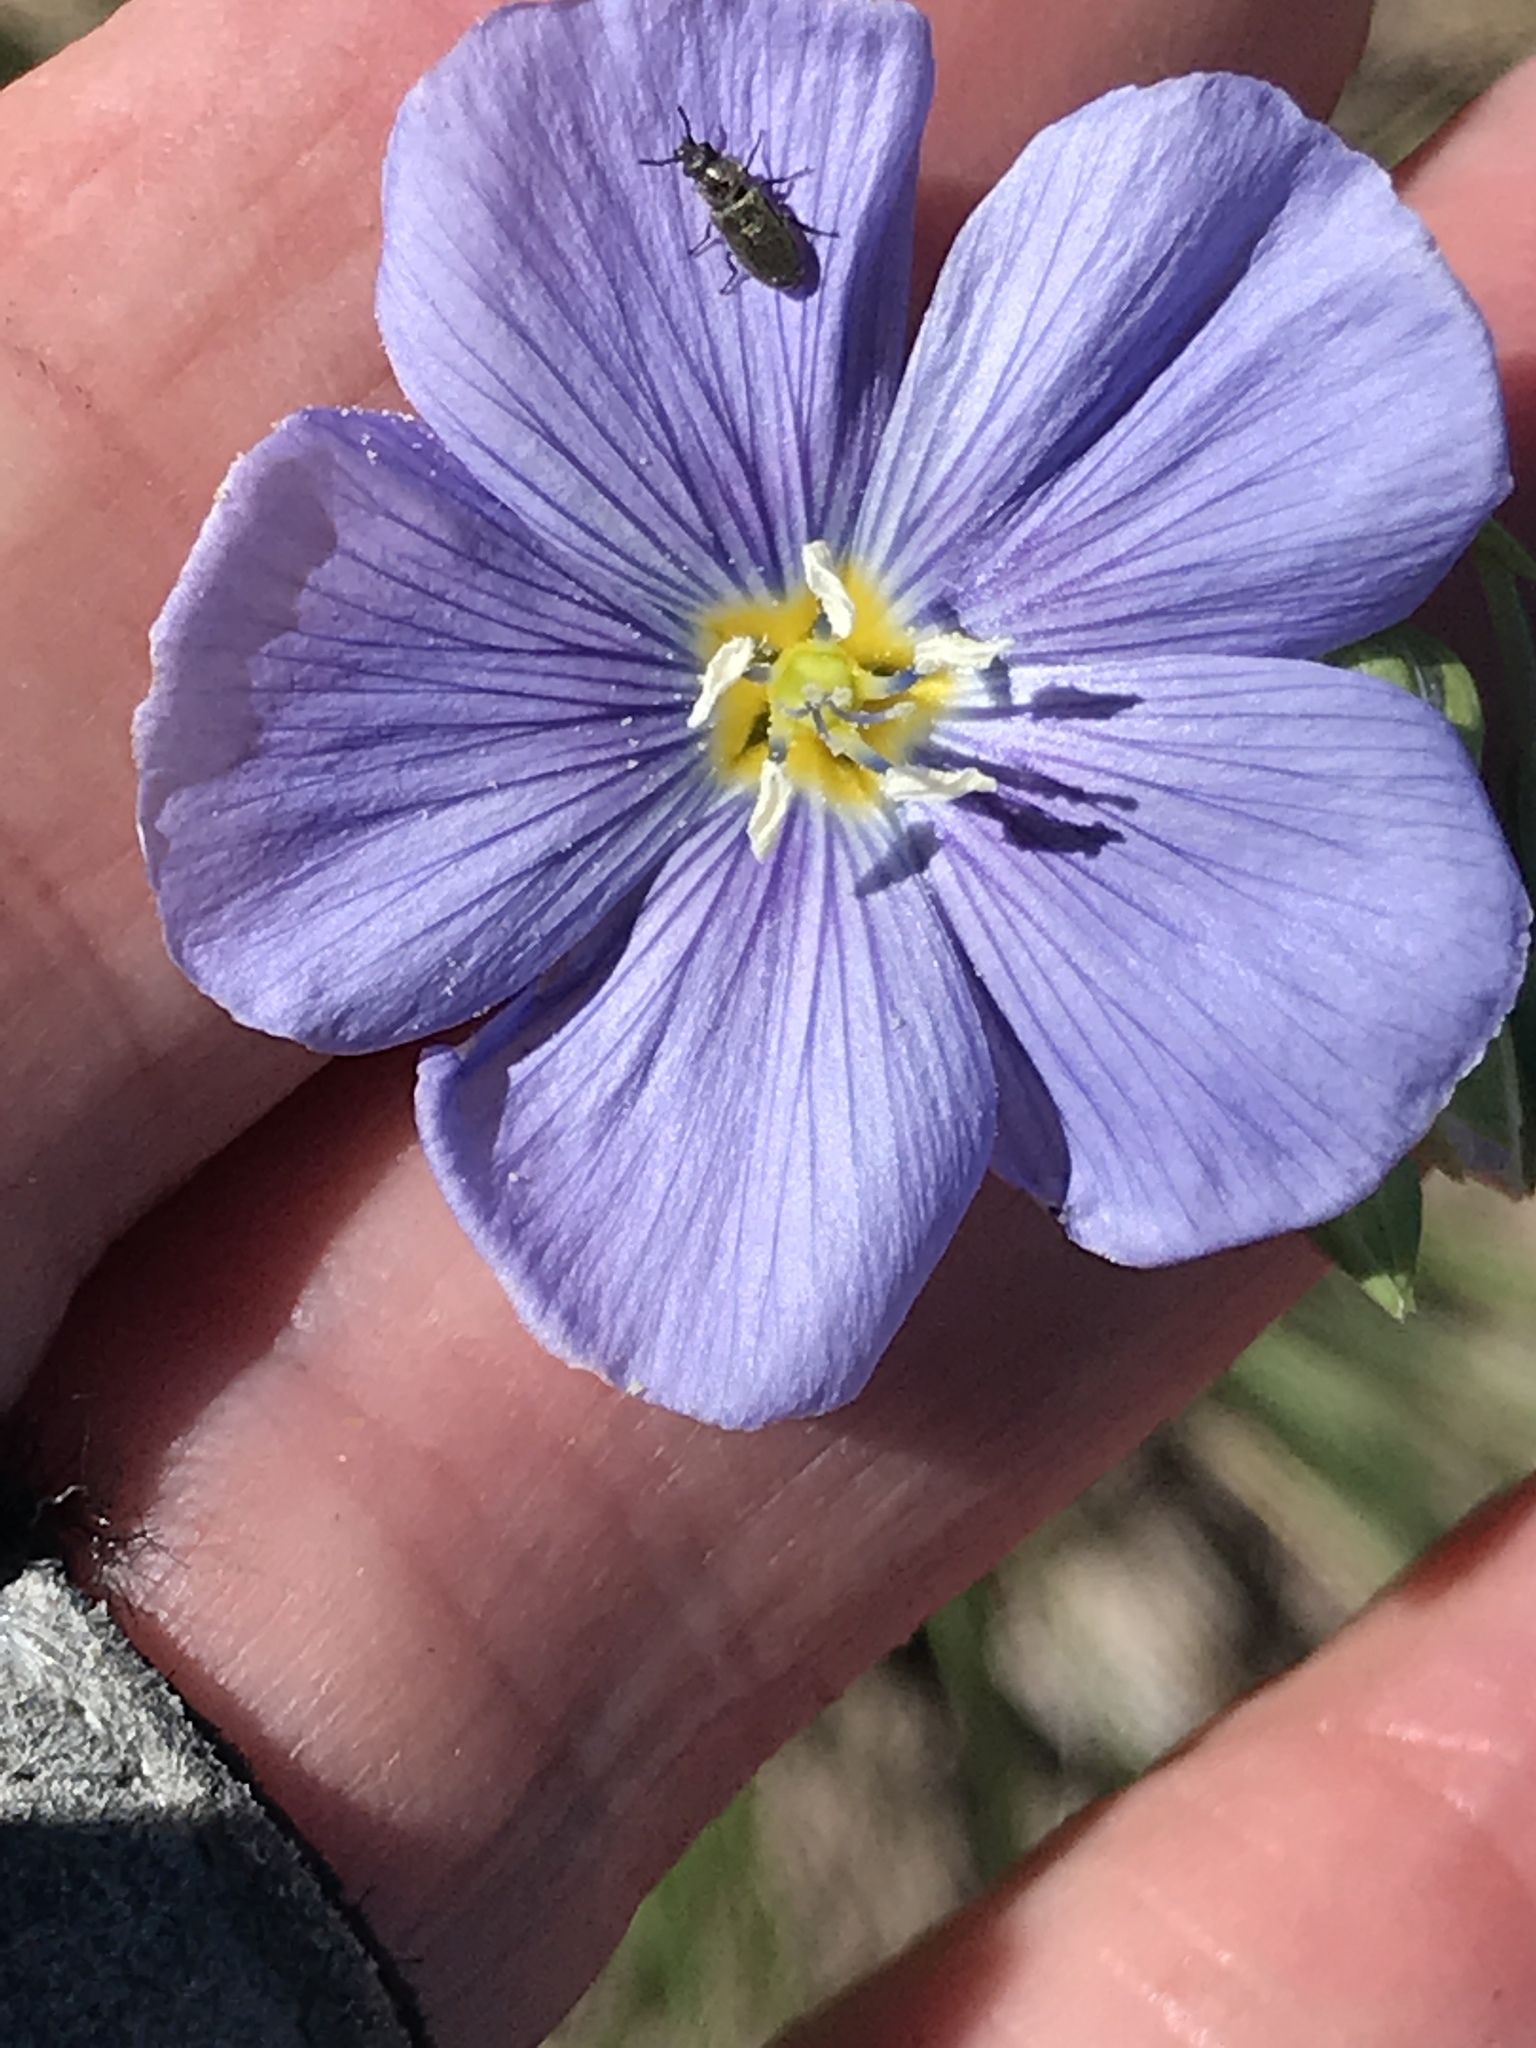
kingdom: Plantae
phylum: Tracheophyta
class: Magnoliopsida
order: Malpighiales
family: Linaceae
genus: Linum
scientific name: Linum lewisii
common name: Prairie flax
